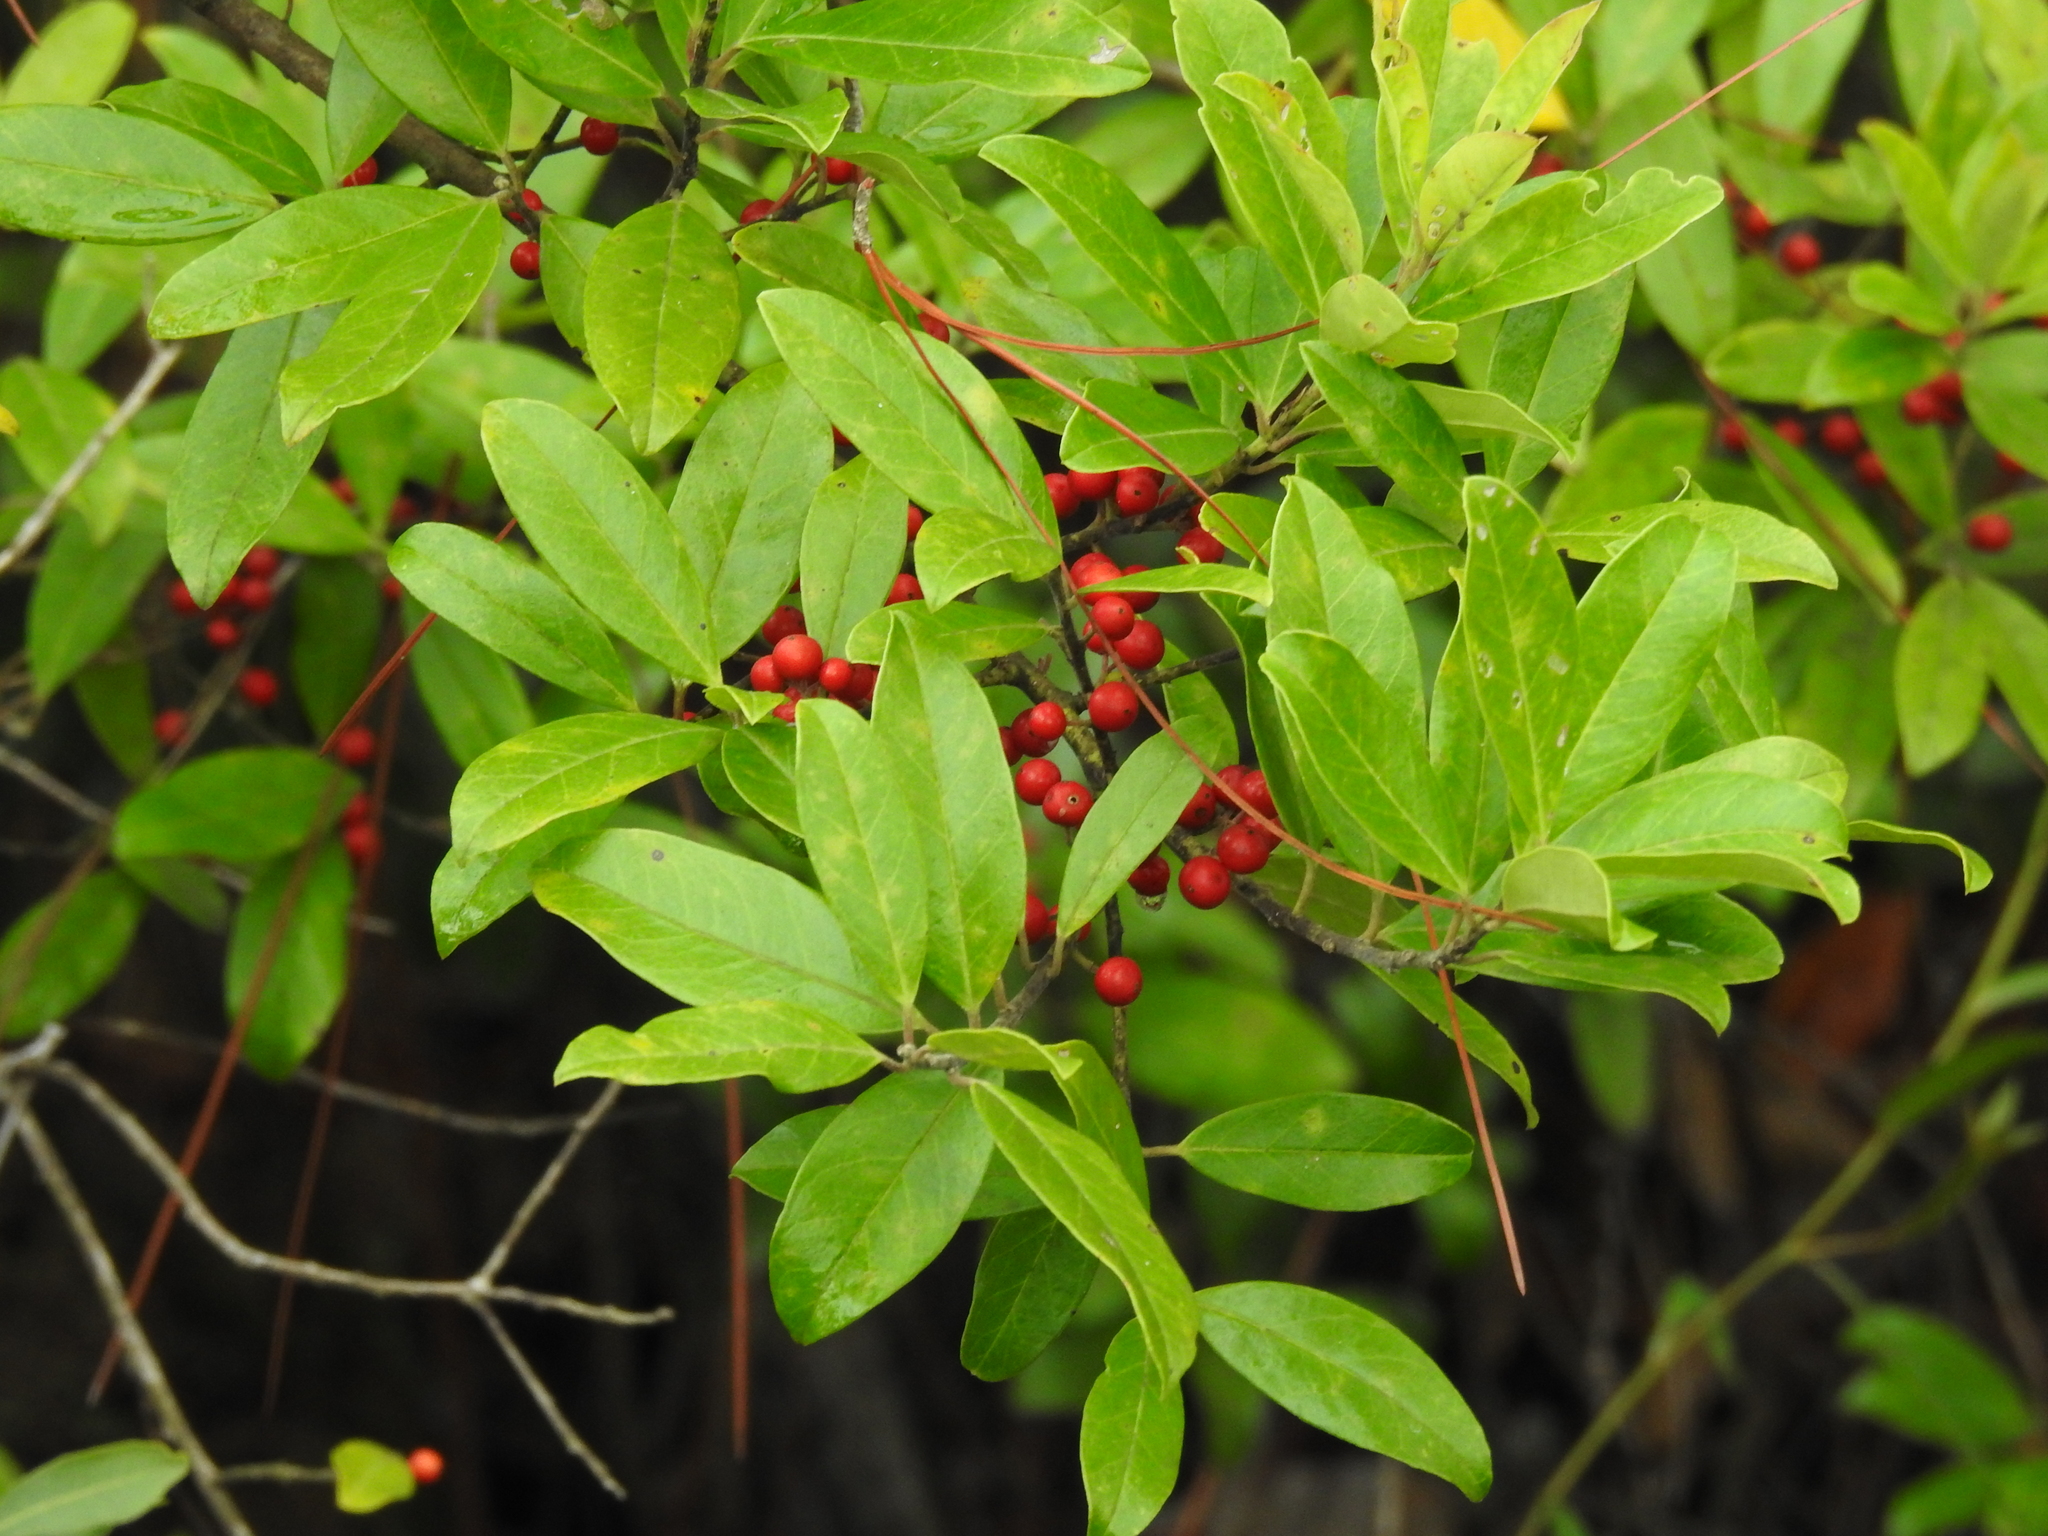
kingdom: Plantae
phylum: Tracheophyta
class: Magnoliopsida
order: Aquifoliales
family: Aquifoliaceae
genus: Ilex
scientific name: Ilex cassine
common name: Dahoon
